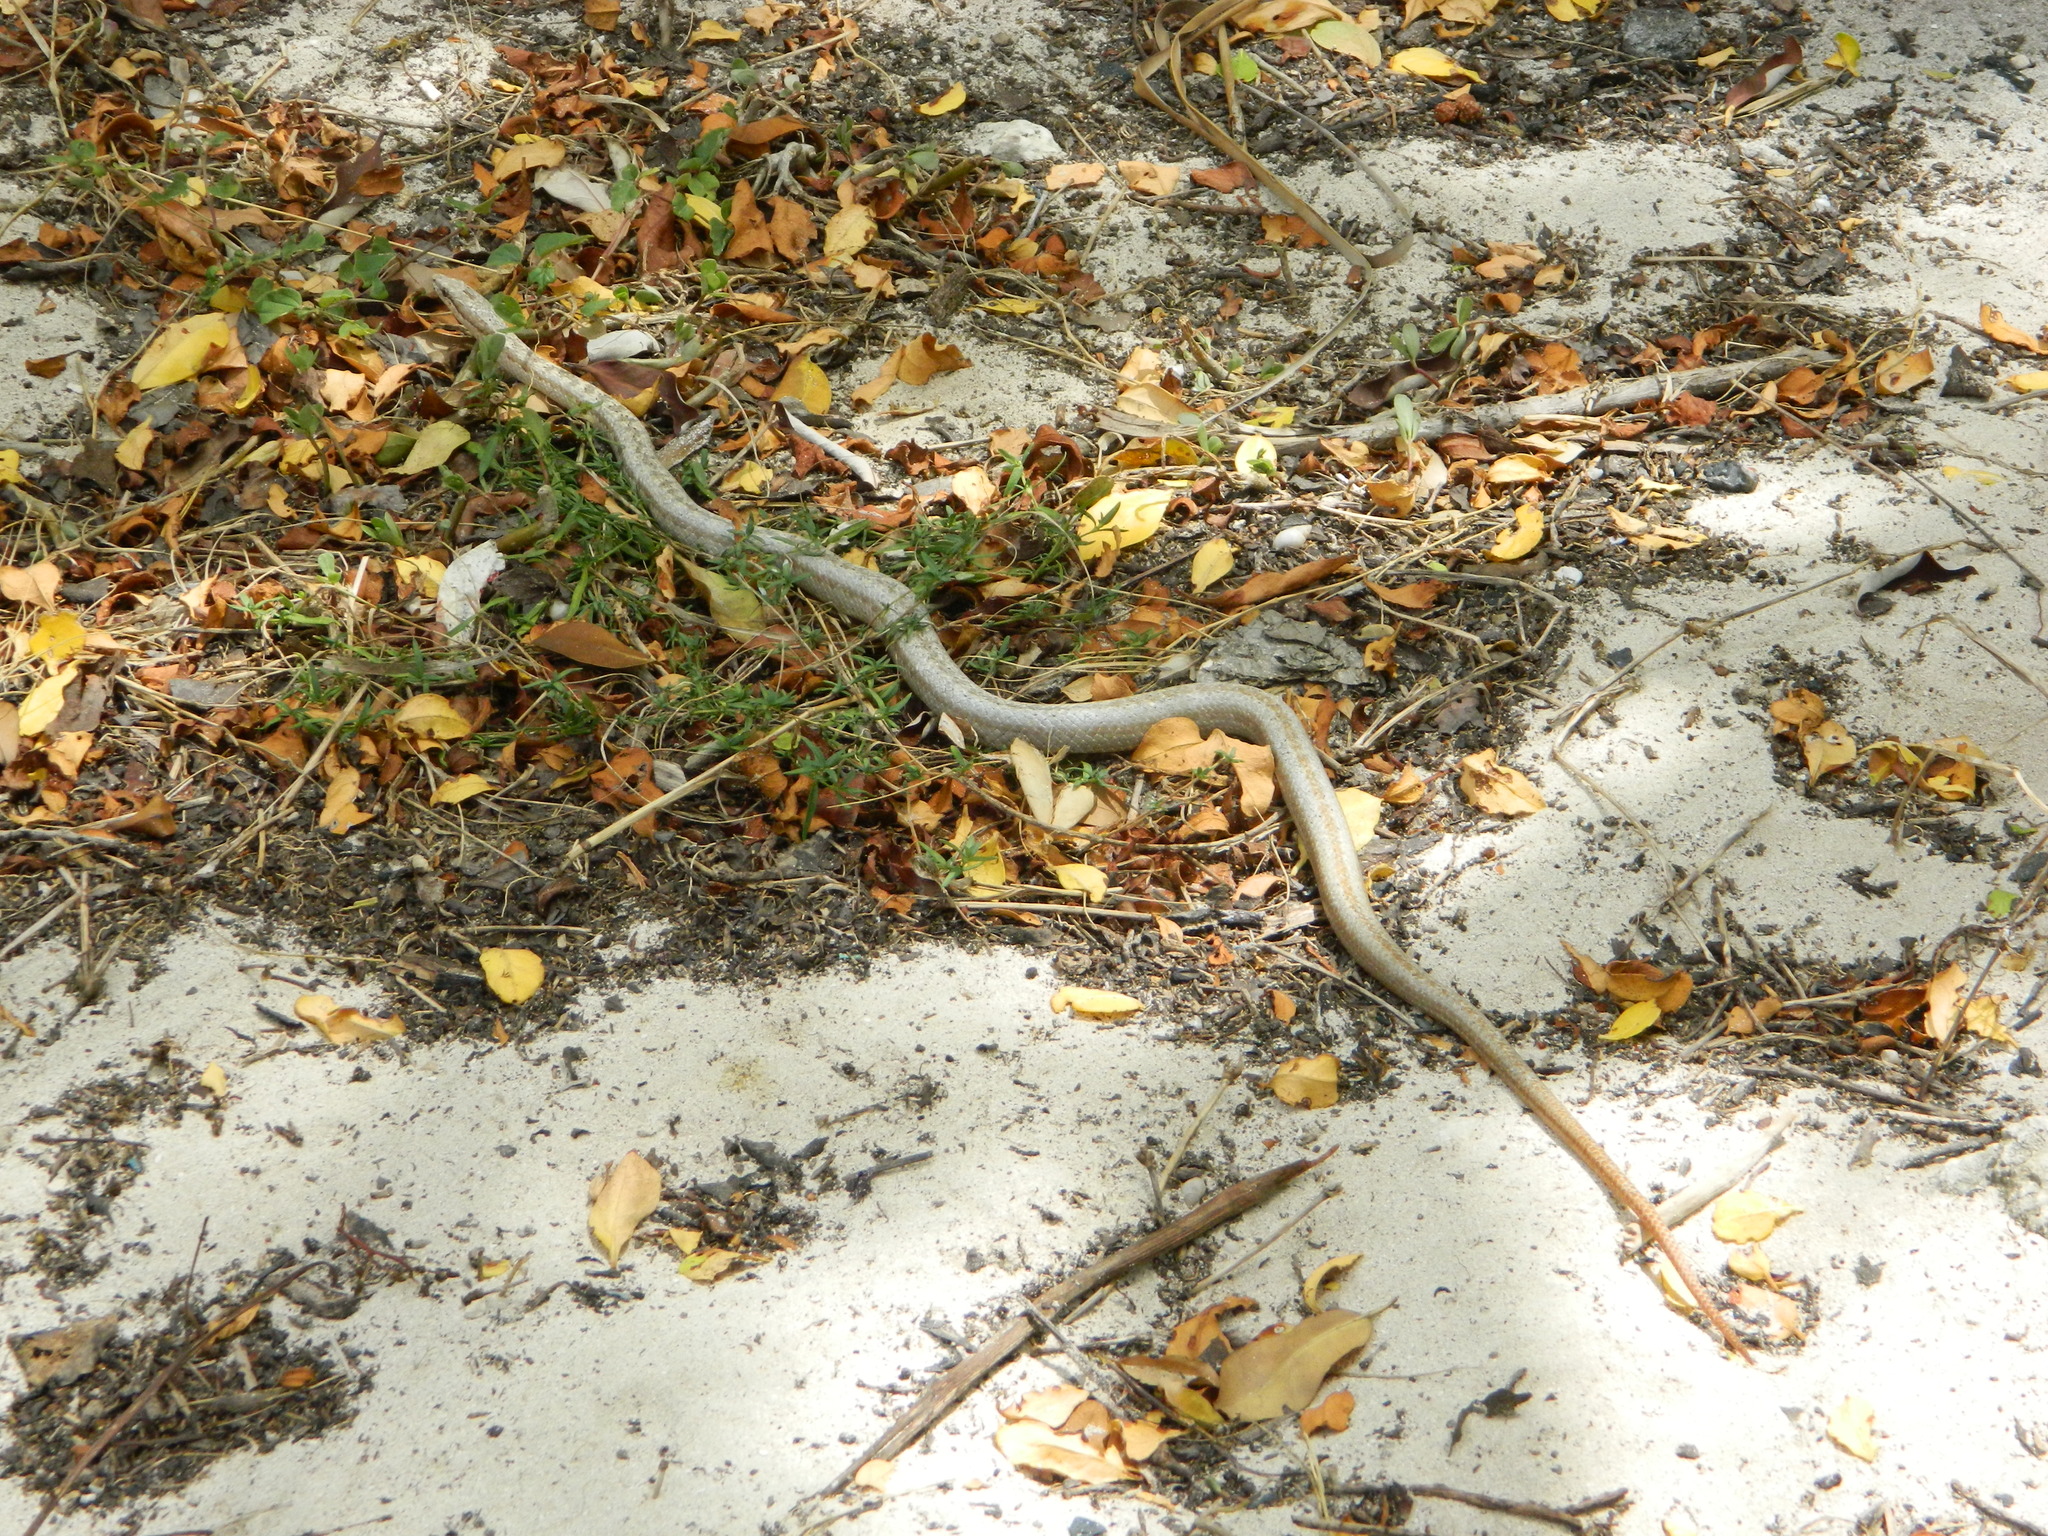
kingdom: Animalia
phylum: Chordata
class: Squamata
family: Colubridae
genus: Alsophis
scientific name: Alsophis antiguae
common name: Antiguan racer
